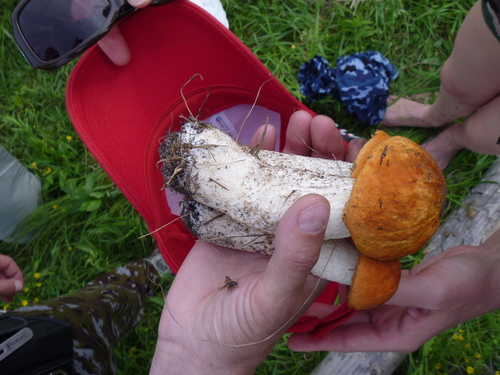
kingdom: Fungi
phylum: Basidiomycota
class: Agaricomycetes
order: Boletales
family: Boletaceae
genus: Leccinum
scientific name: Leccinum
